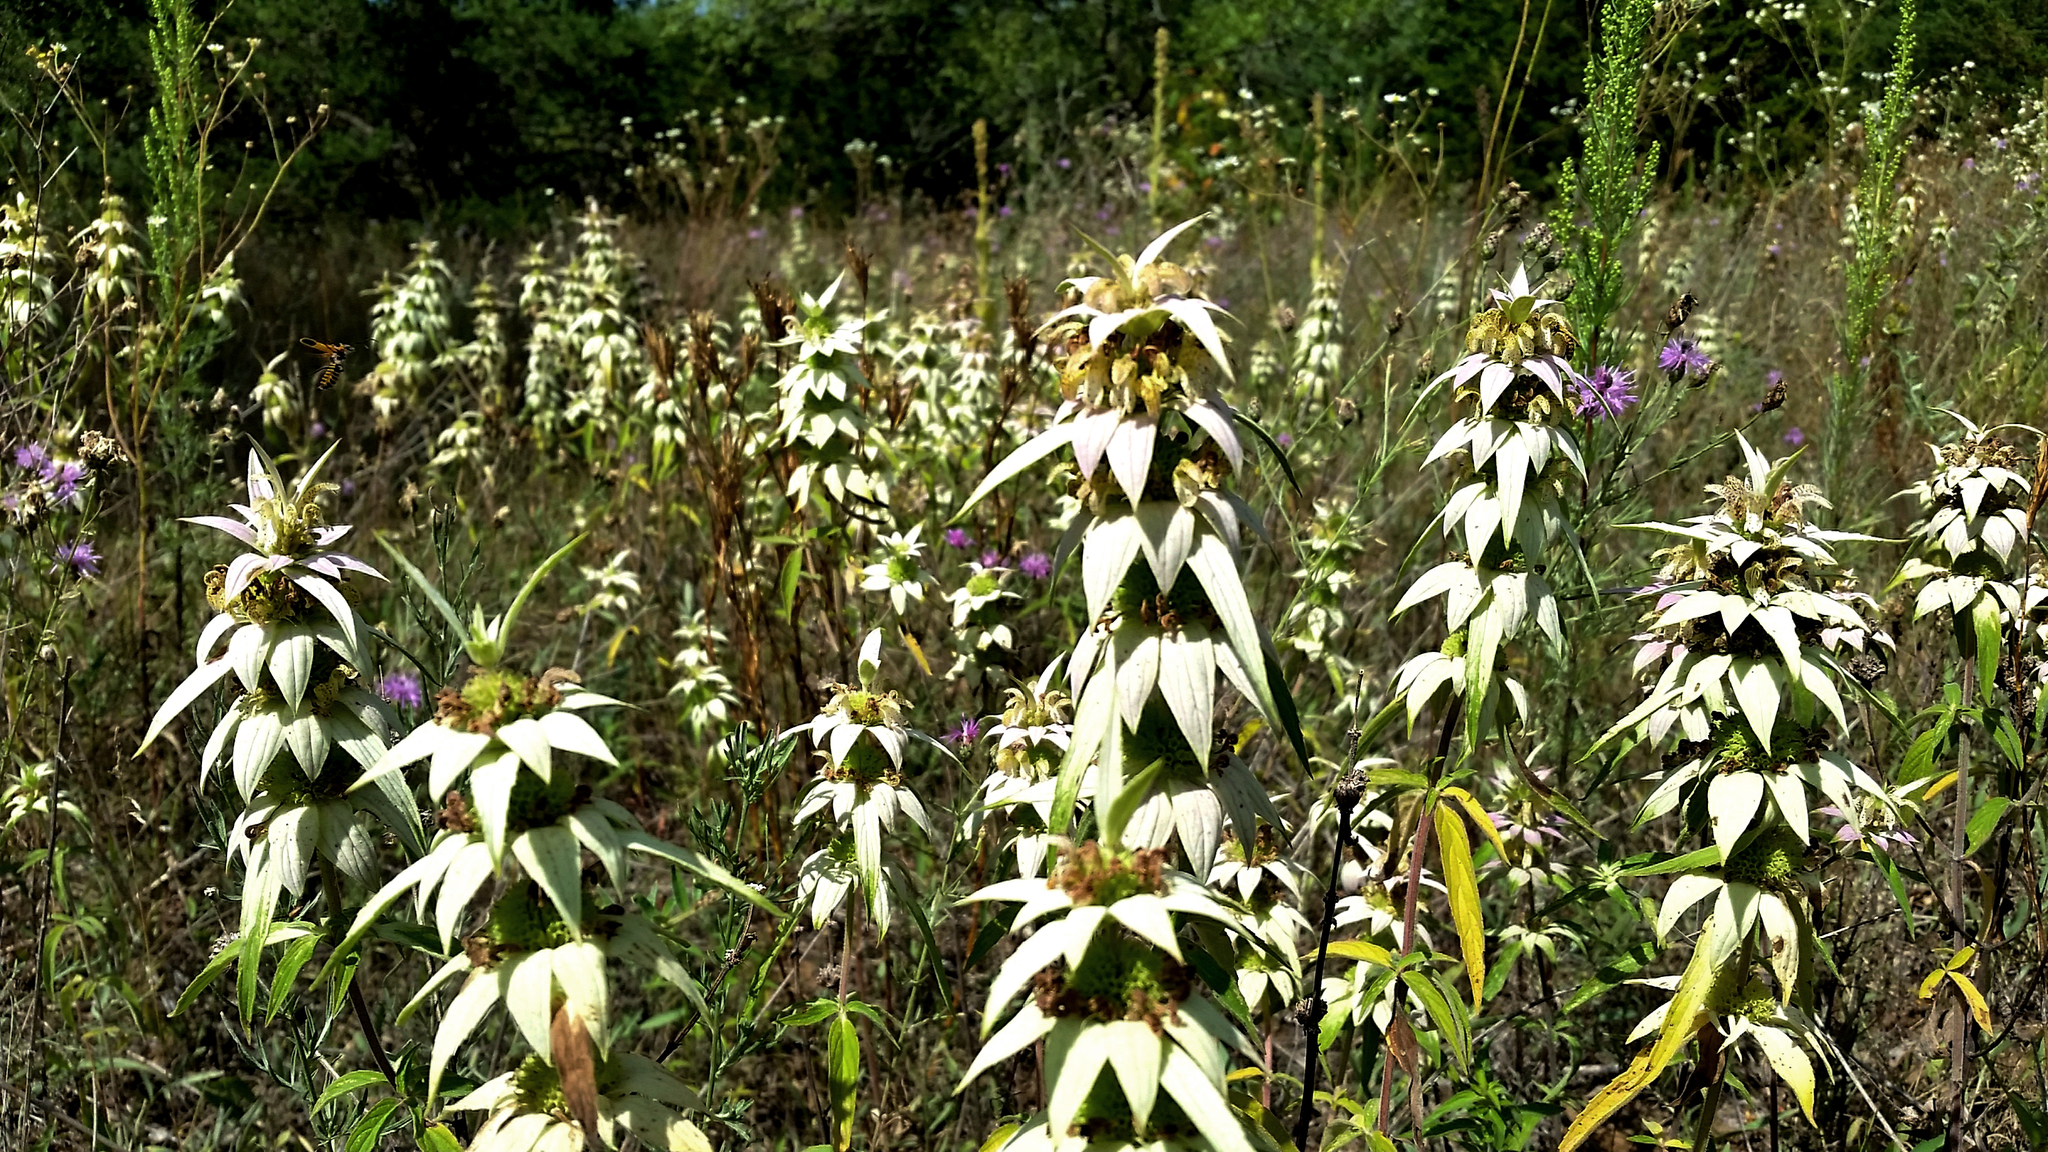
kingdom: Plantae
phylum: Tracheophyta
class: Magnoliopsida
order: Lamiales
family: Lamiaceae
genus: Monarda
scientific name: Monarda punctata
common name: Dotted monarda
